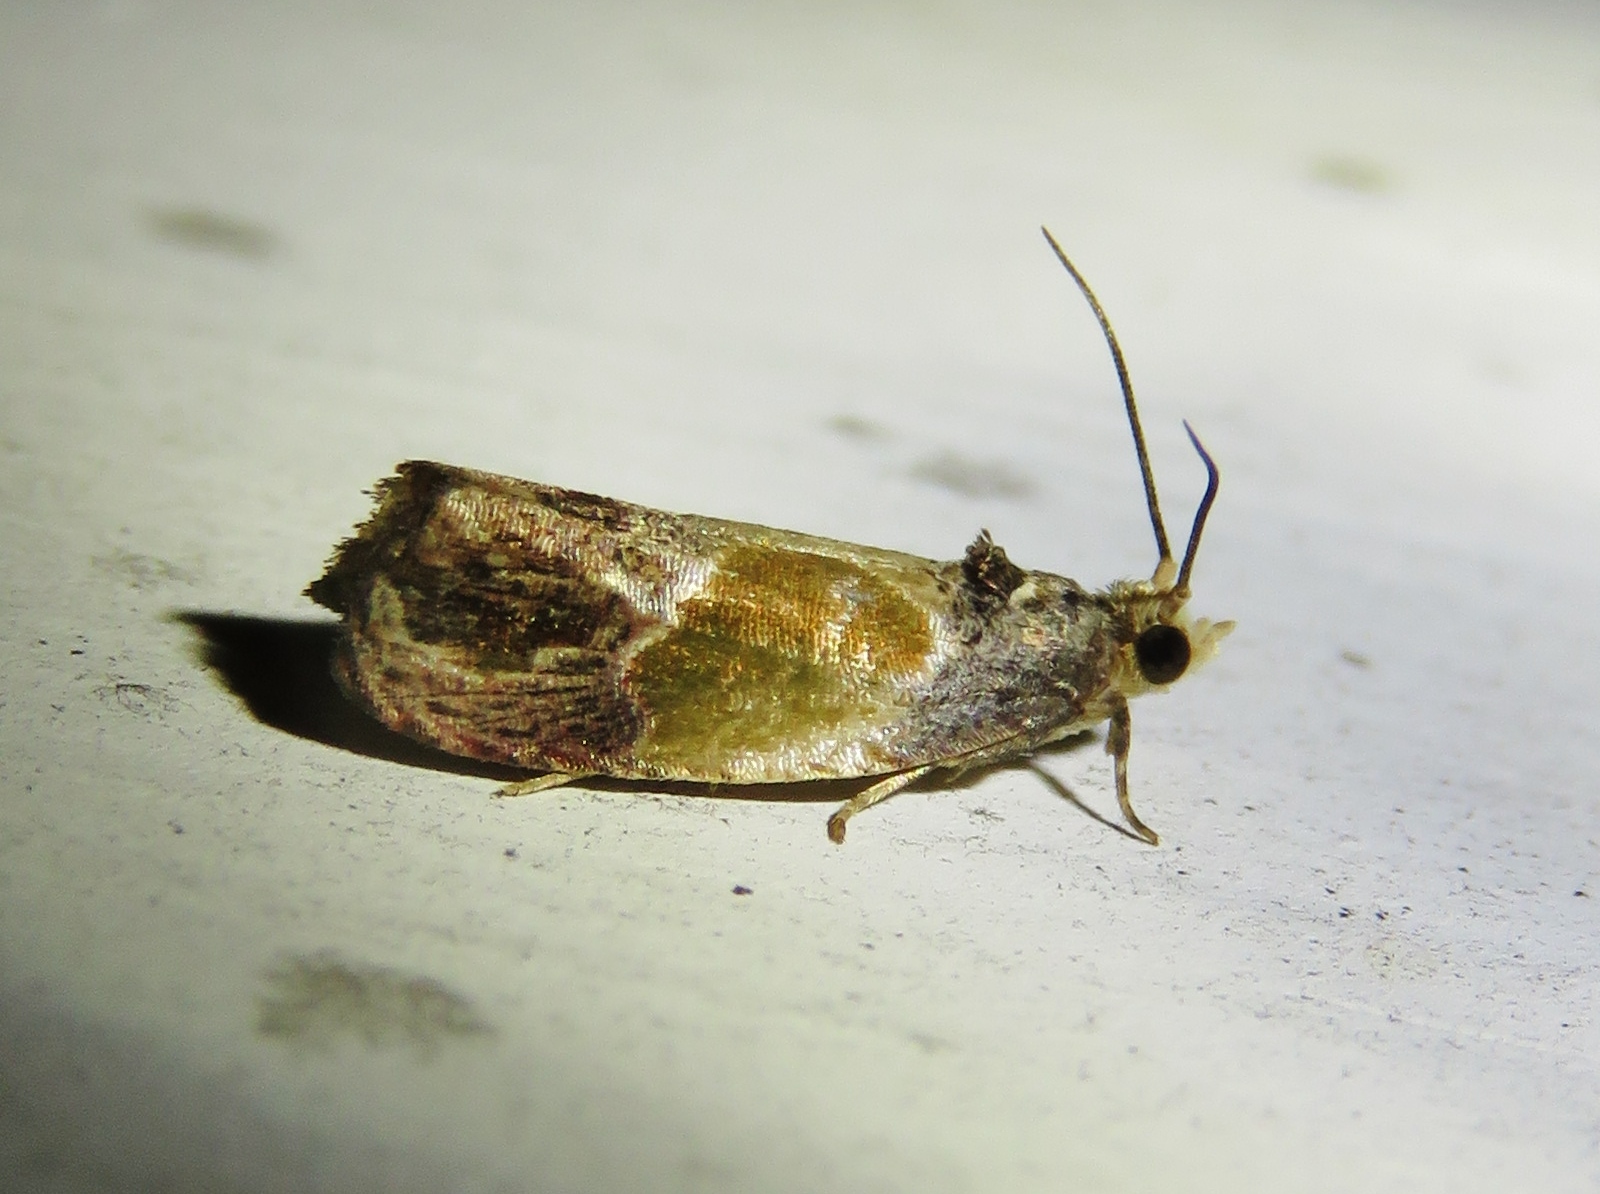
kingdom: Animalia
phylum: Arthropoda
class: Insecta
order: Lepidoptera
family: Tortricidae
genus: Eumarozia
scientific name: Eumarozia malachitana
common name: Sculptured moth
